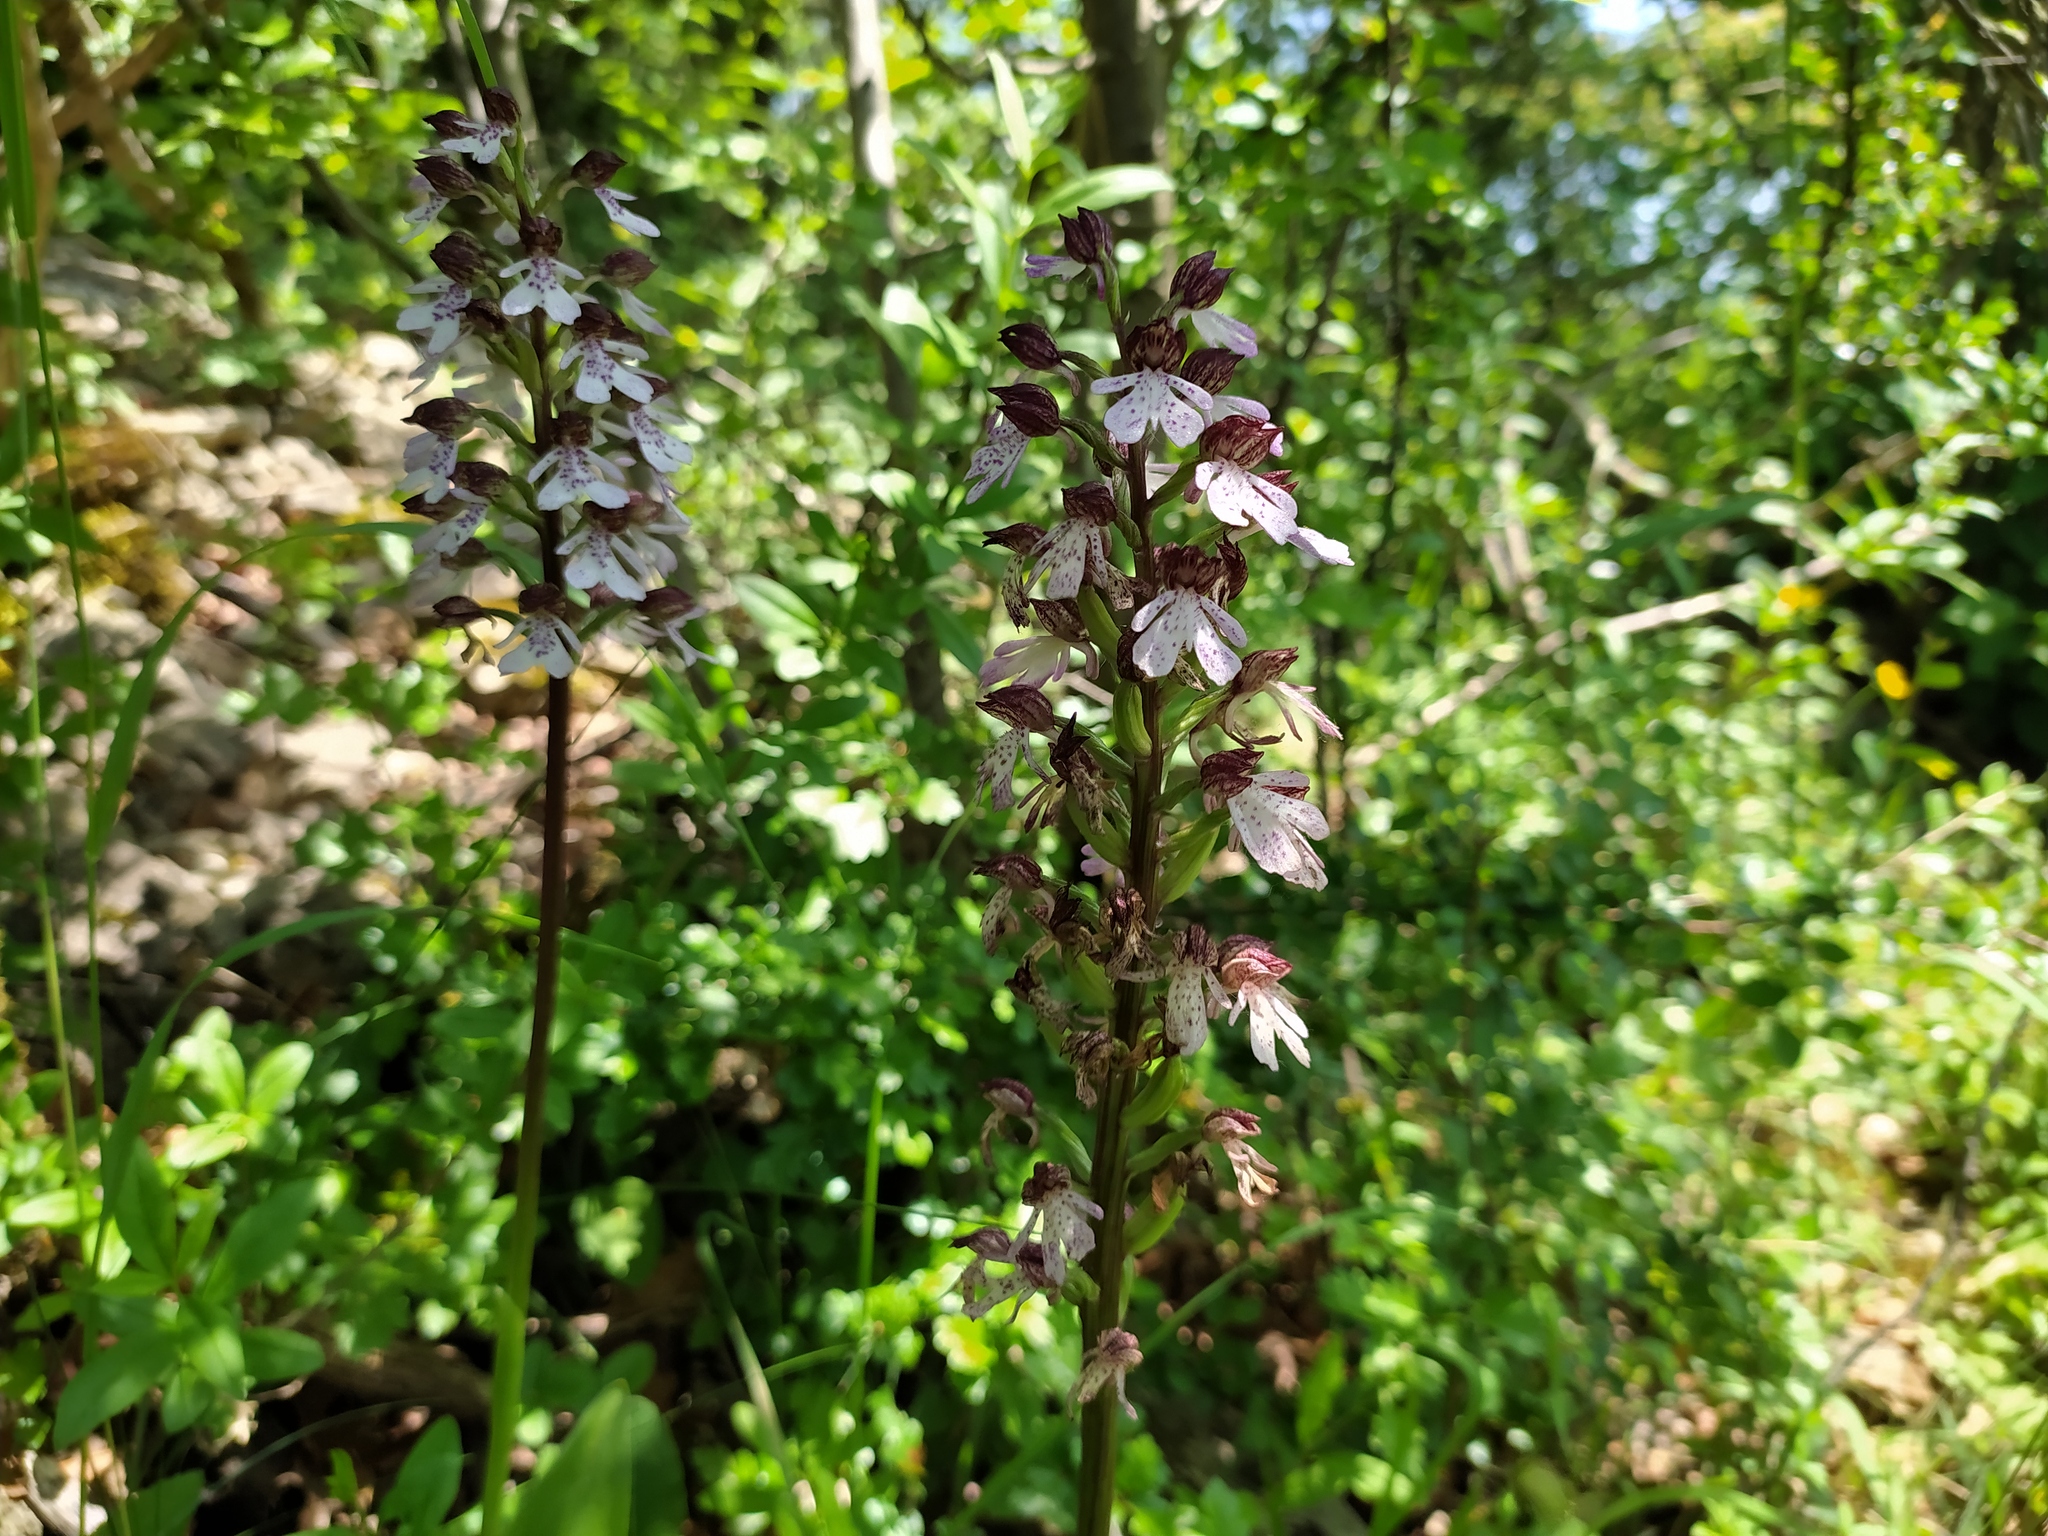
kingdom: Plantae
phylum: Tracheophyta
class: Liliopsida
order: Asparagales
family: Orchidaceae
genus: Orchis
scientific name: Orchis purpurea
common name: Lady orchid
